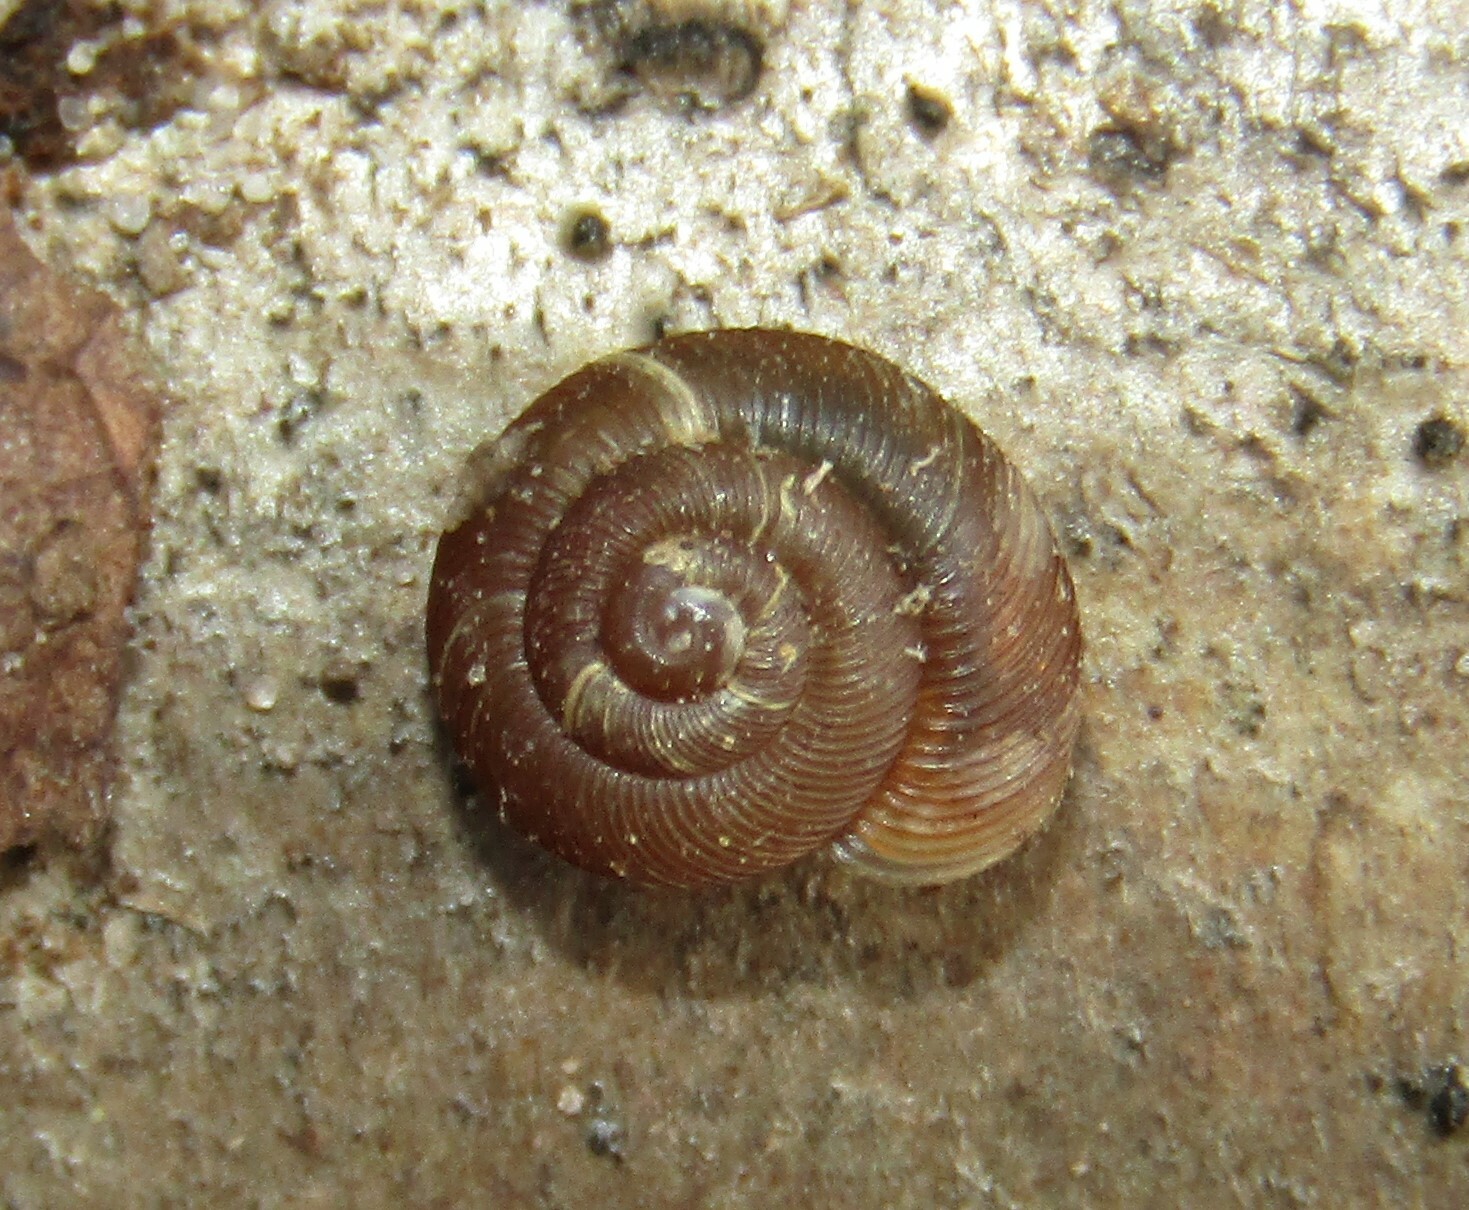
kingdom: Animalia
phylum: Mollusca
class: Gastropoda
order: Stylommatophora
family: Discidae
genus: Discus
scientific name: Discus ruderatus
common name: Brown disc snail
